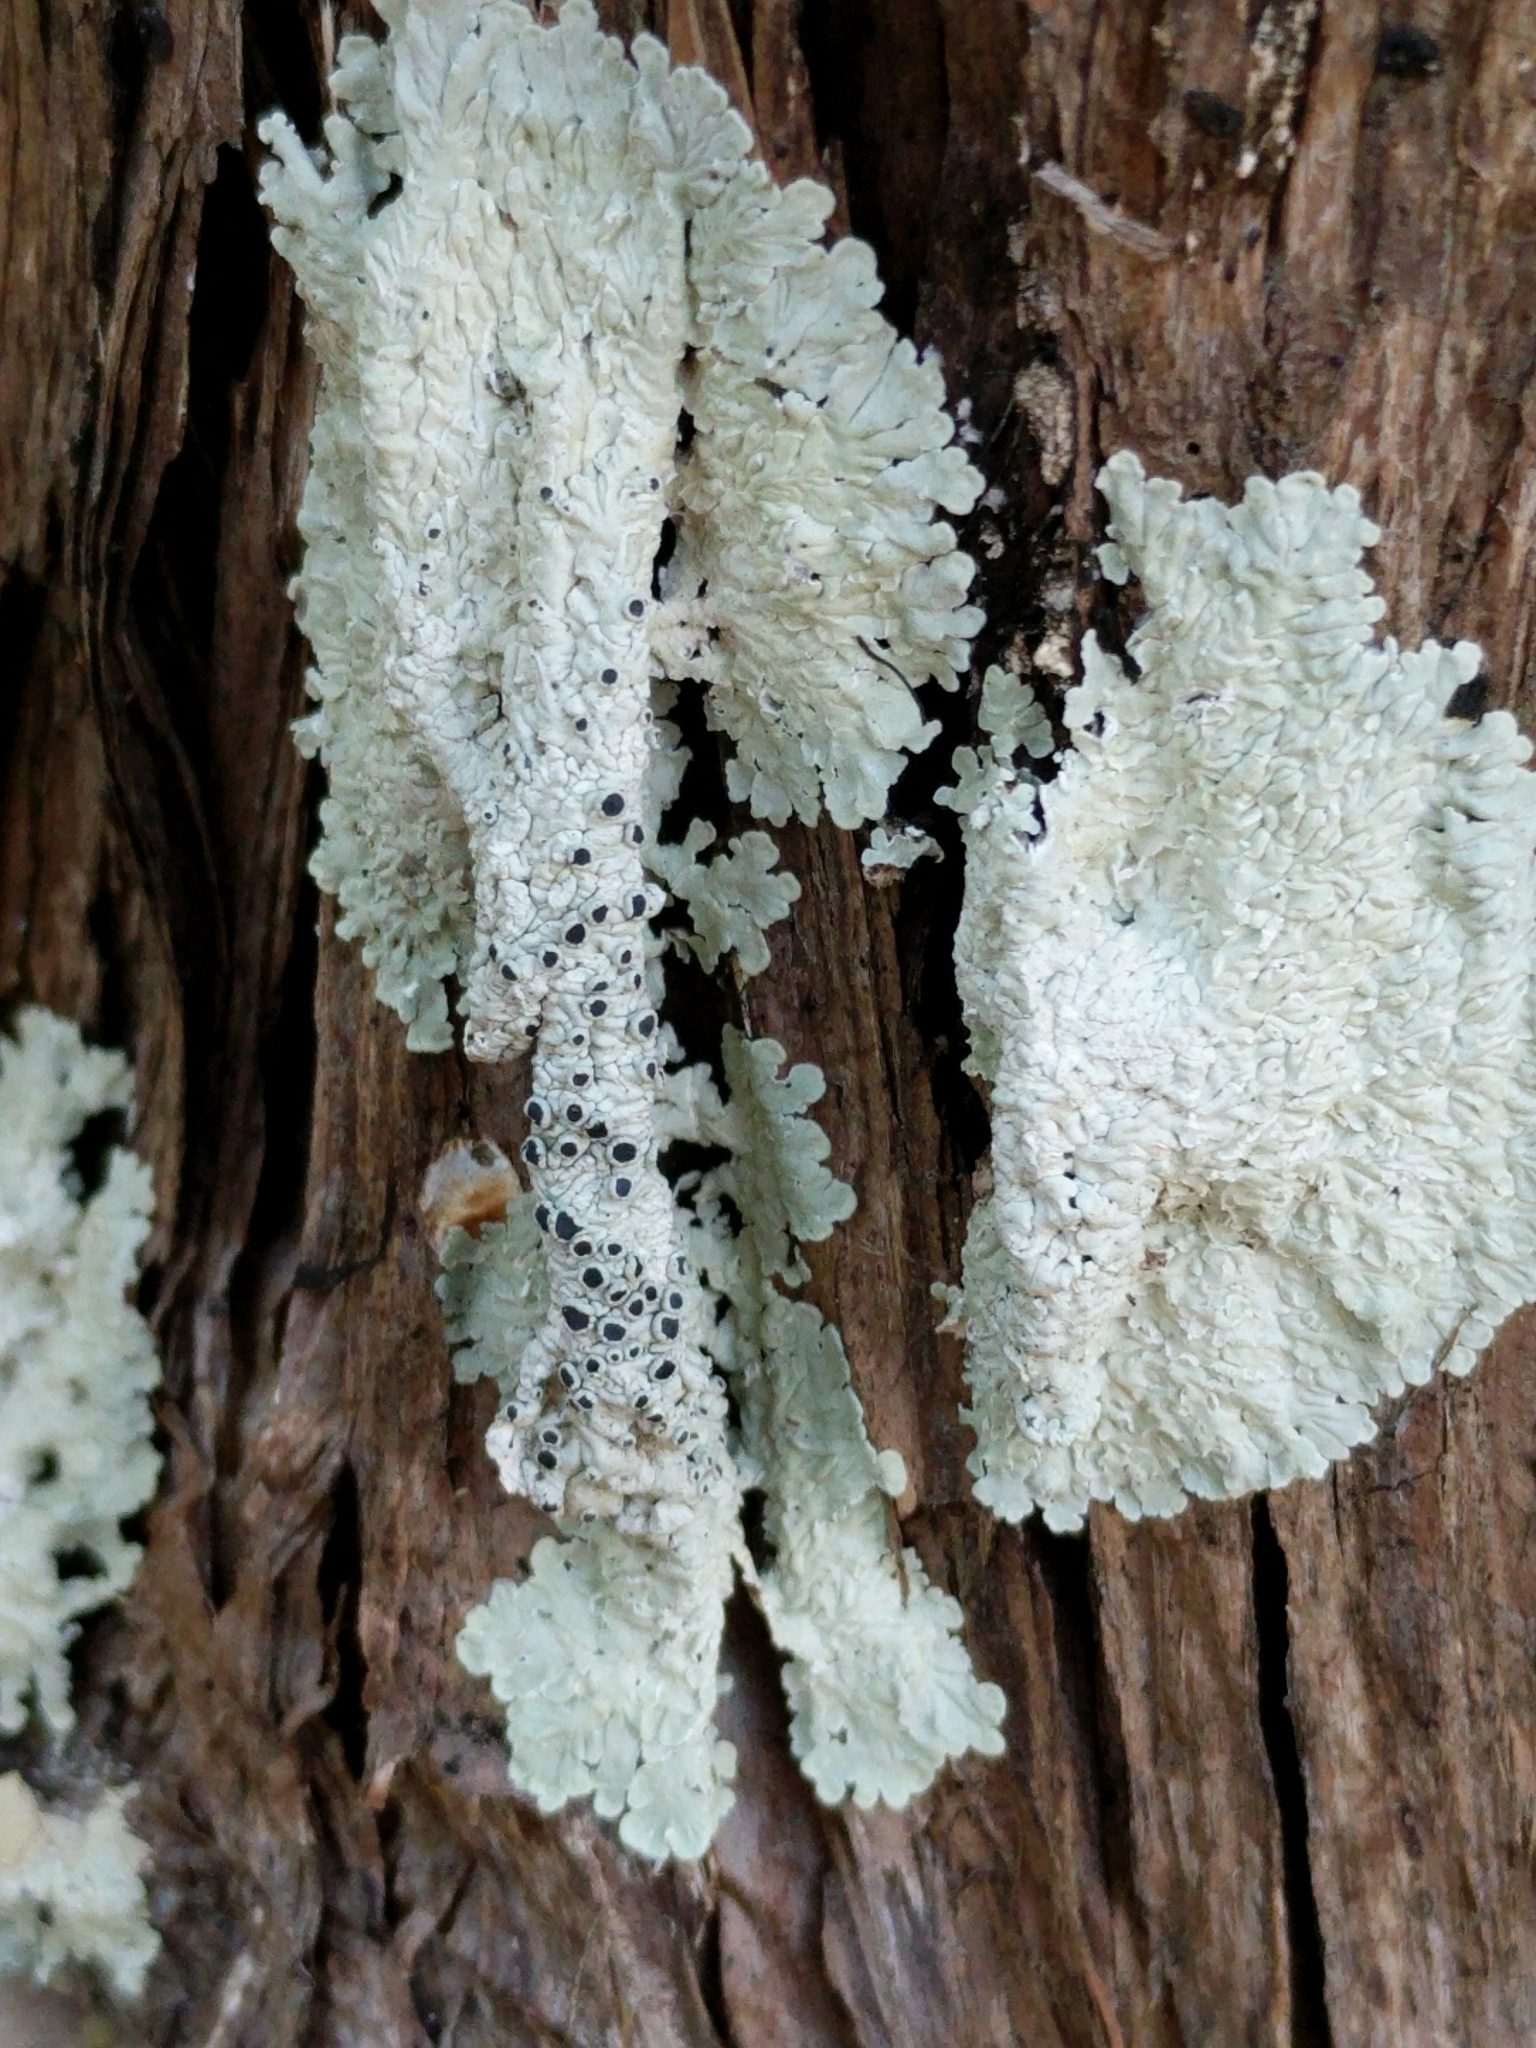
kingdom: Fungi
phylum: Ascomycota
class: Lecanoromycetes
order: Teloschistales
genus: Dirinaria
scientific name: Dirinaria confusa
